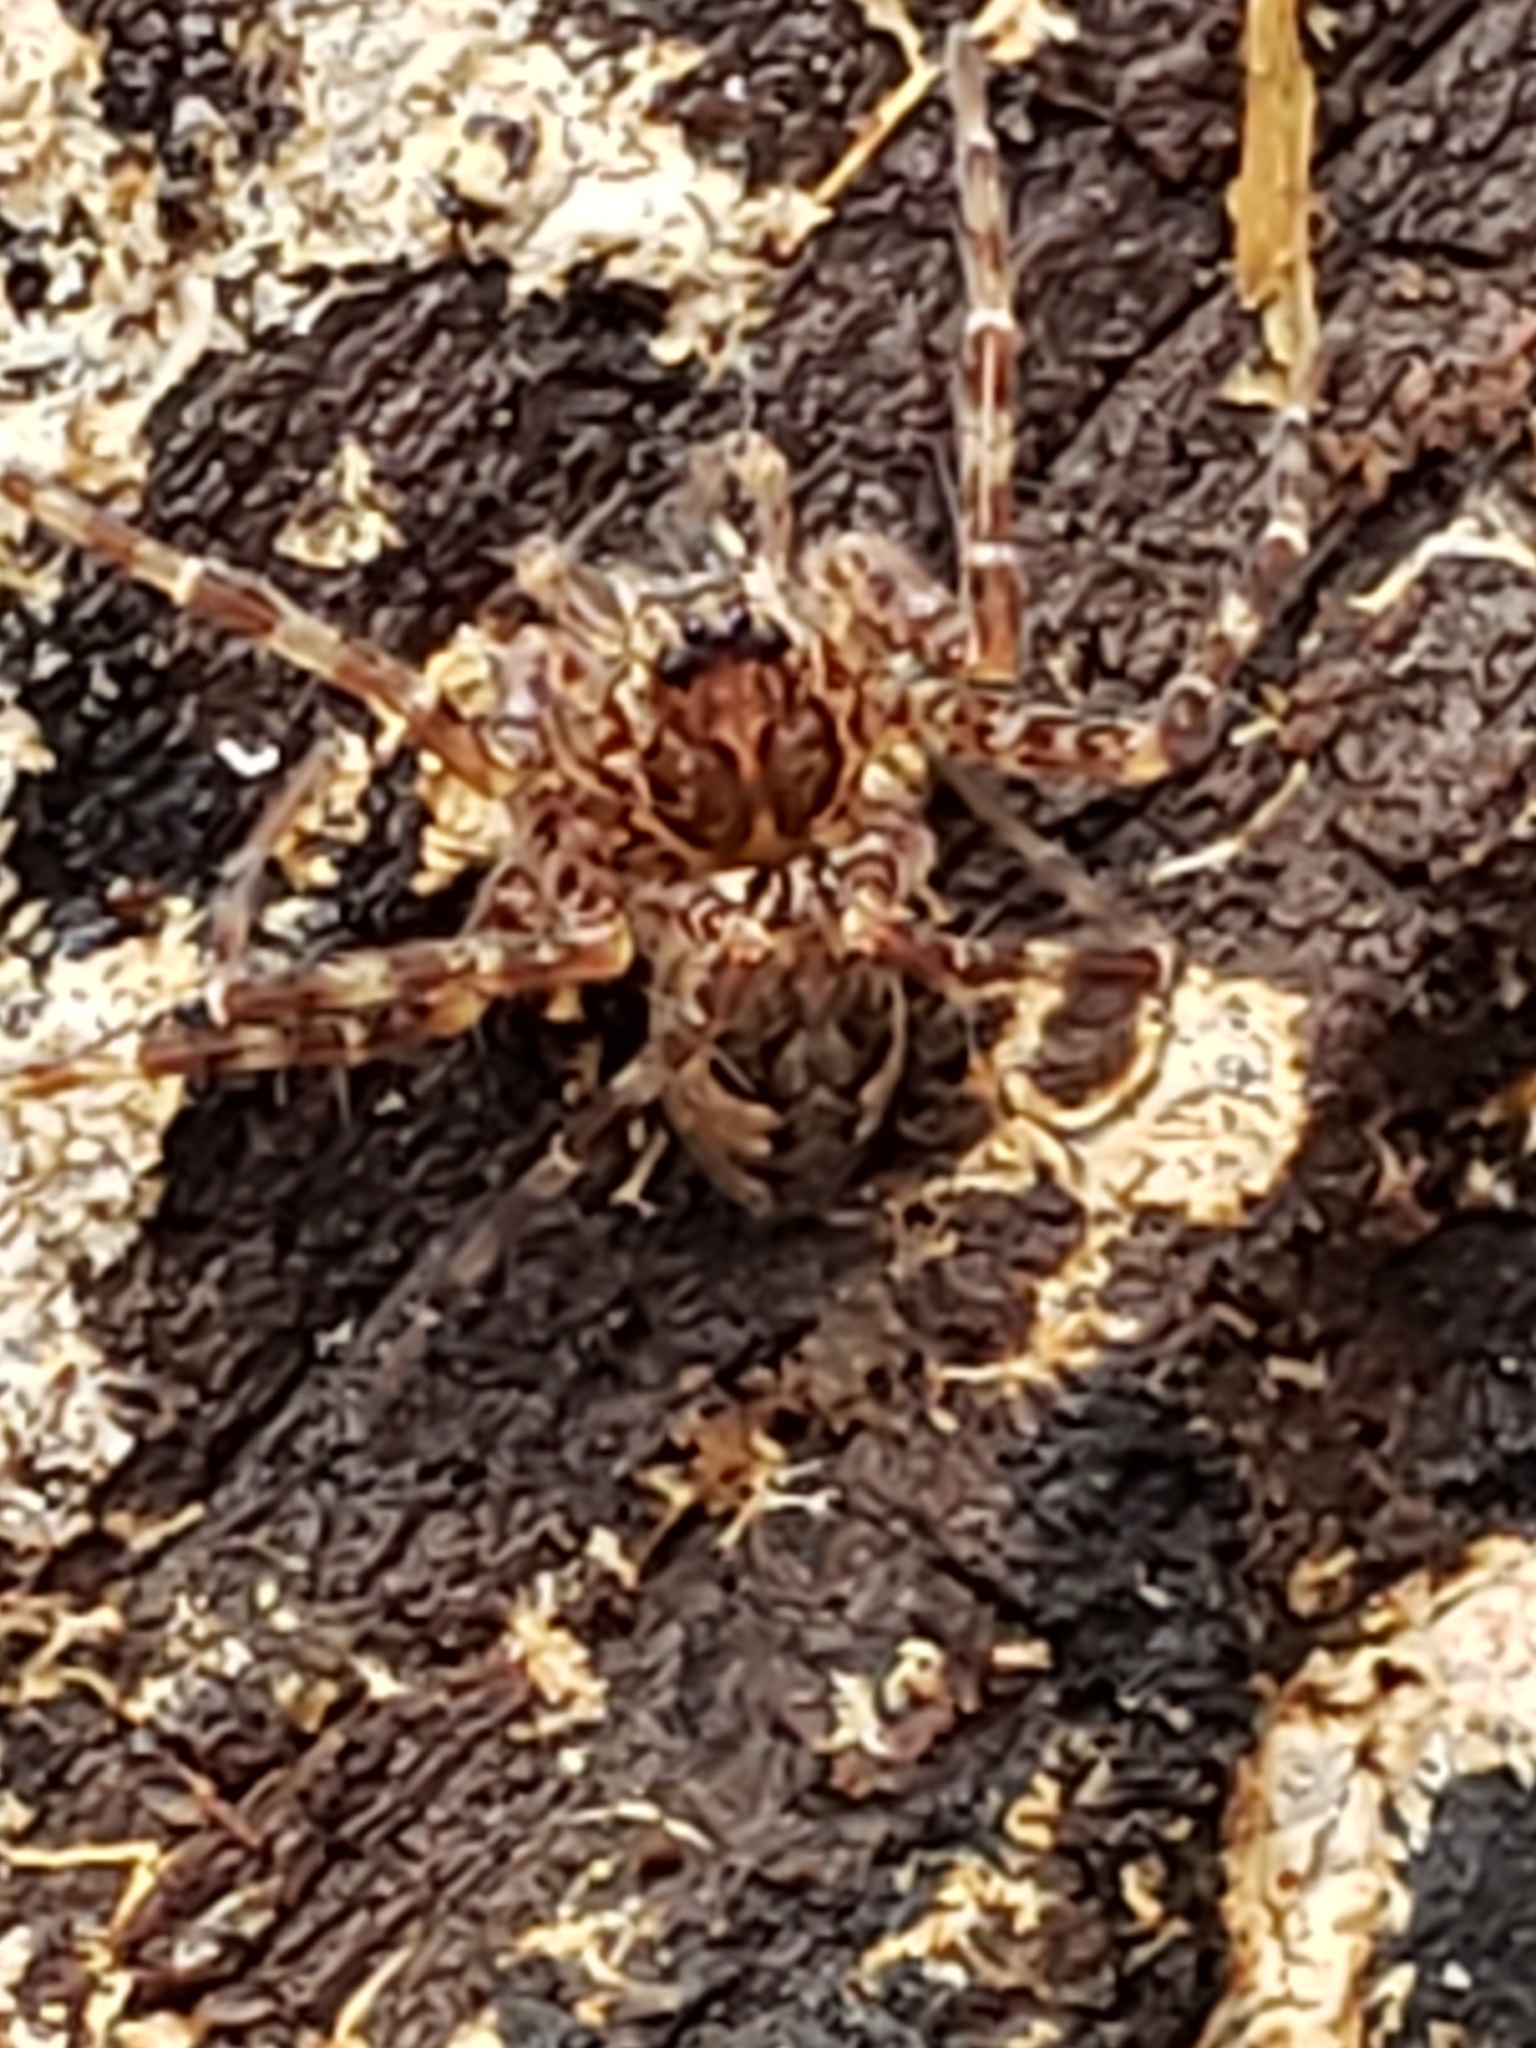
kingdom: Animalia
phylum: Arthropoda
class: Arachnida
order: Araneae
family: Pisauridae
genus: Dolomedes
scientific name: Dolomedes tenebrosus
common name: Dark fishing spider
